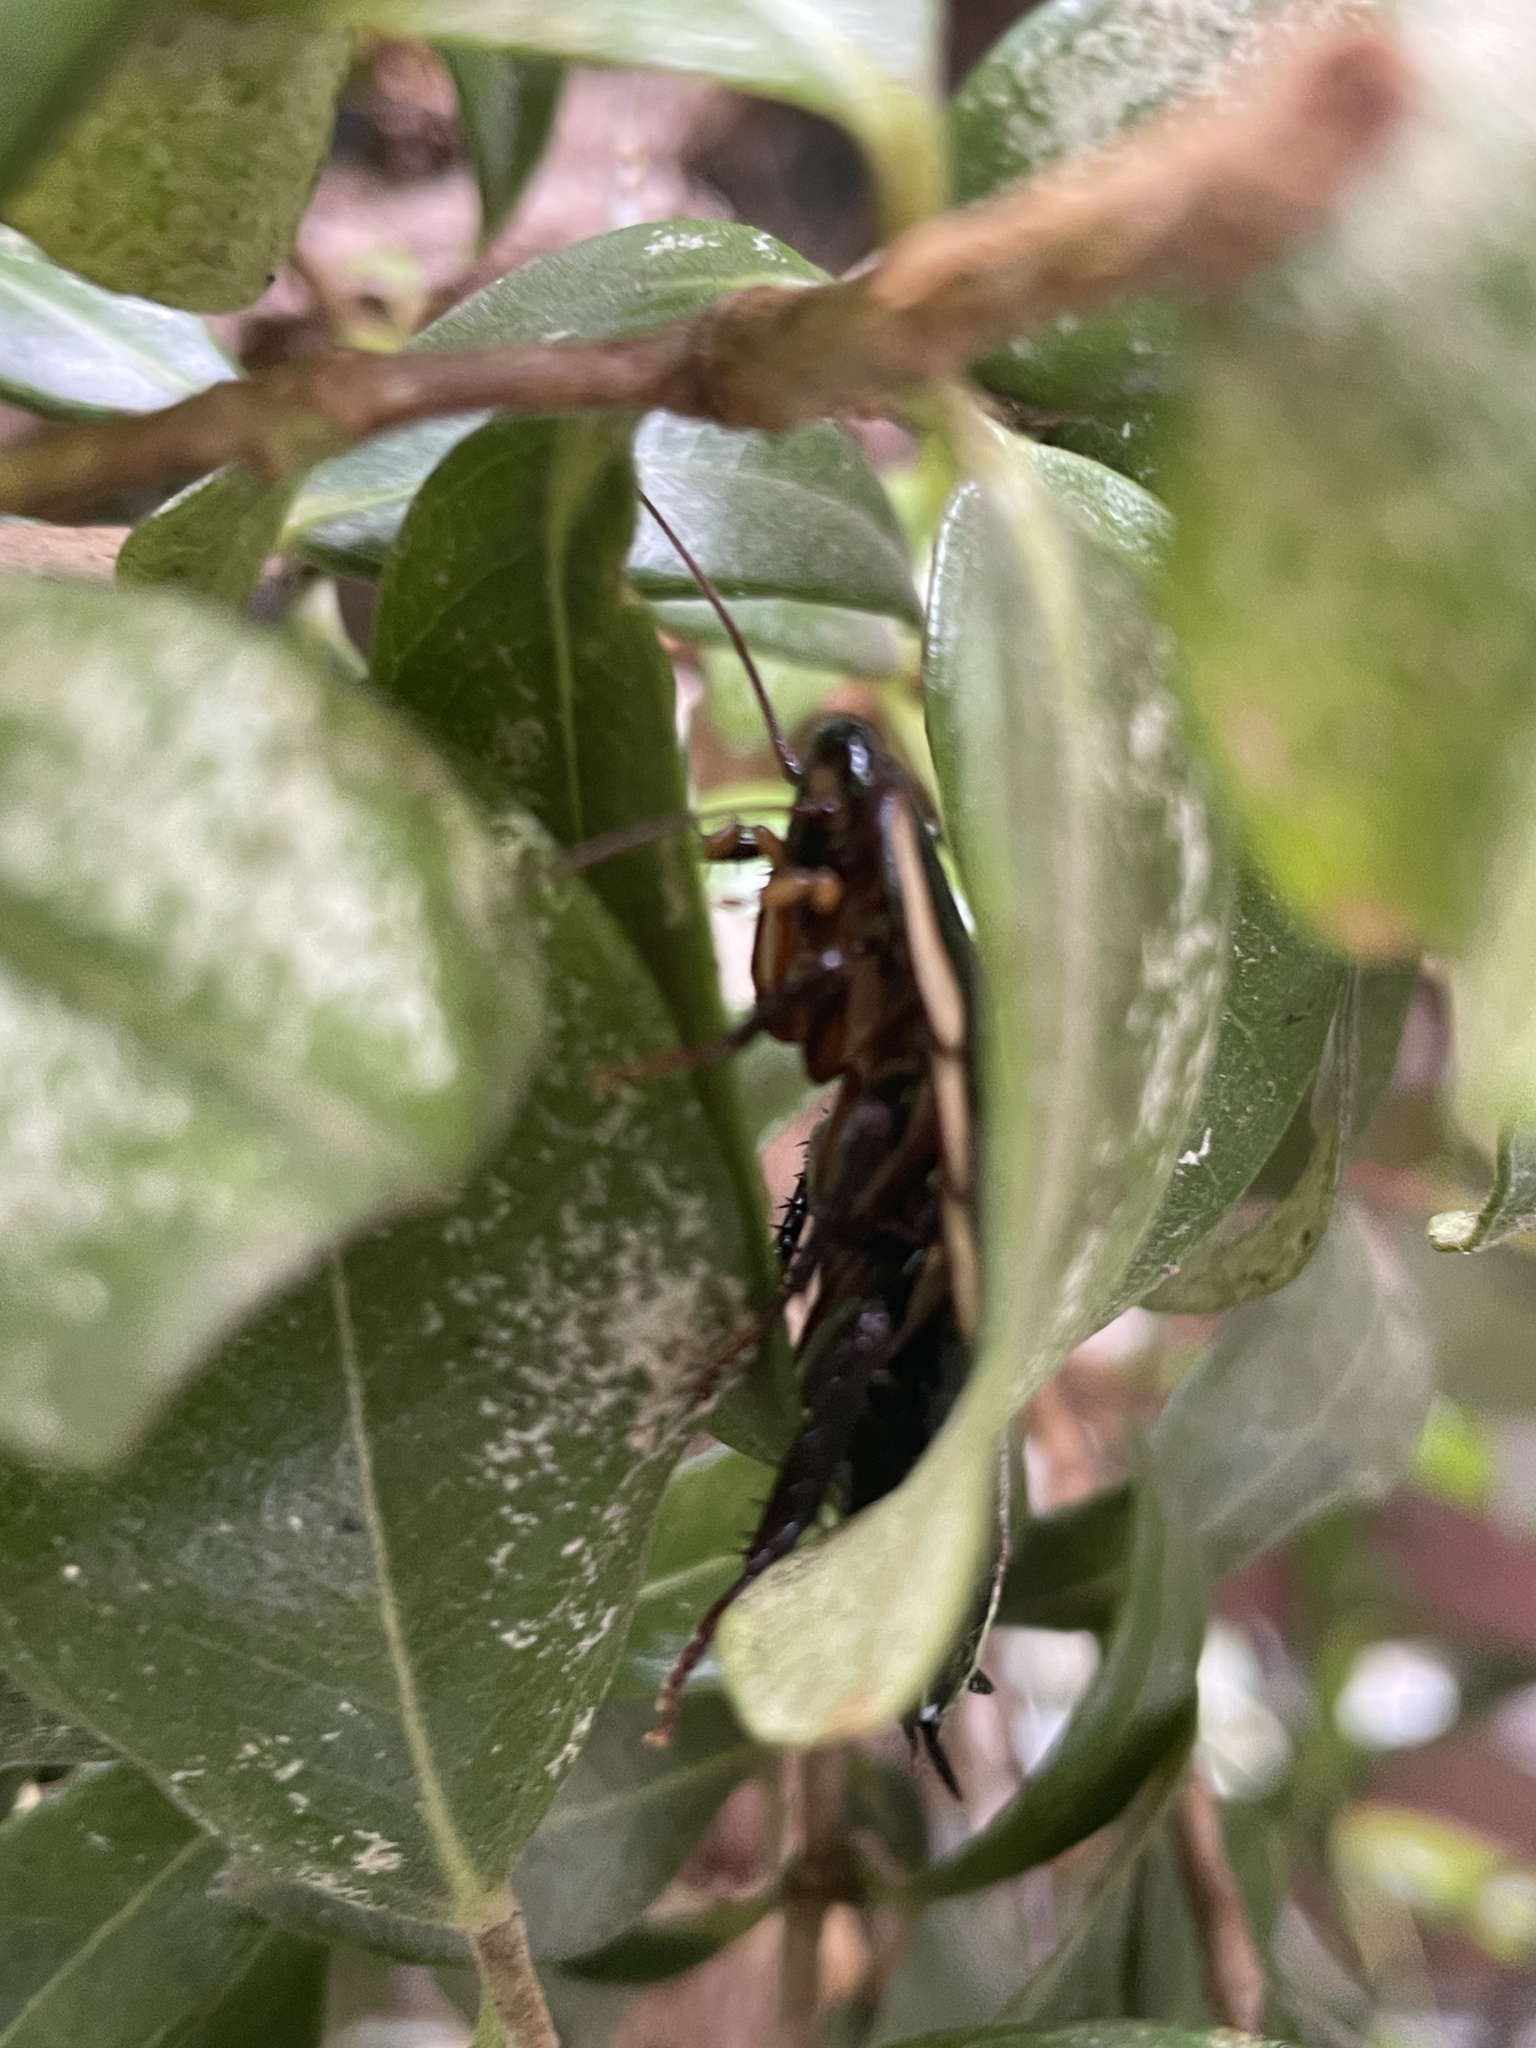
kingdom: Animalia
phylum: Arthropoda
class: Insecta
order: Blattodea
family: Blattidae
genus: Drymaplaneta
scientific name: Drymaplaneta semivitta
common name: Gisborne cockroach
